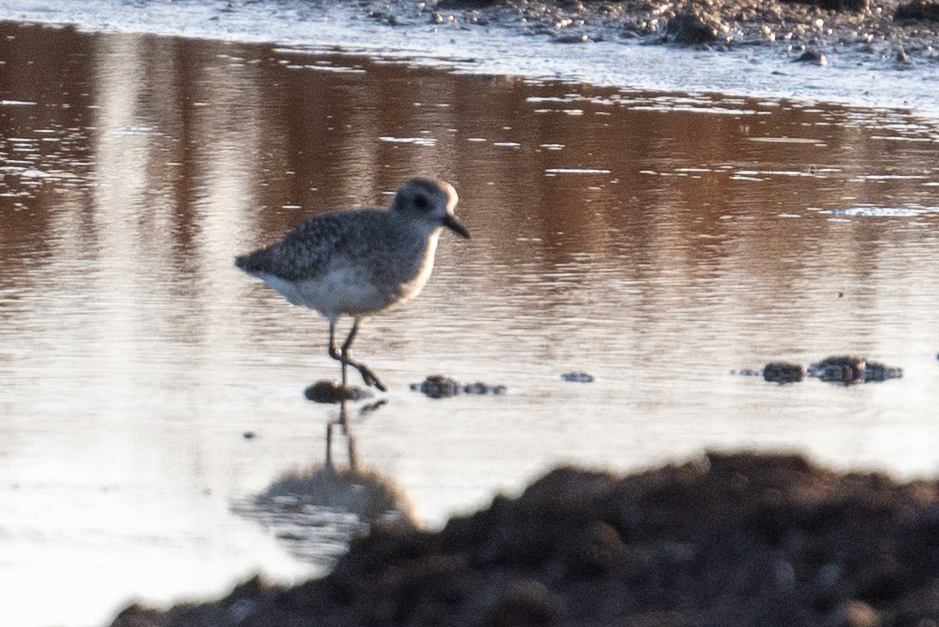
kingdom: Animalia
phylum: Chordata
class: Aves
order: Charadriiformes
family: Charadriidae
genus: Pluvialis
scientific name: Pluvialis squatarola
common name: Grey plover
